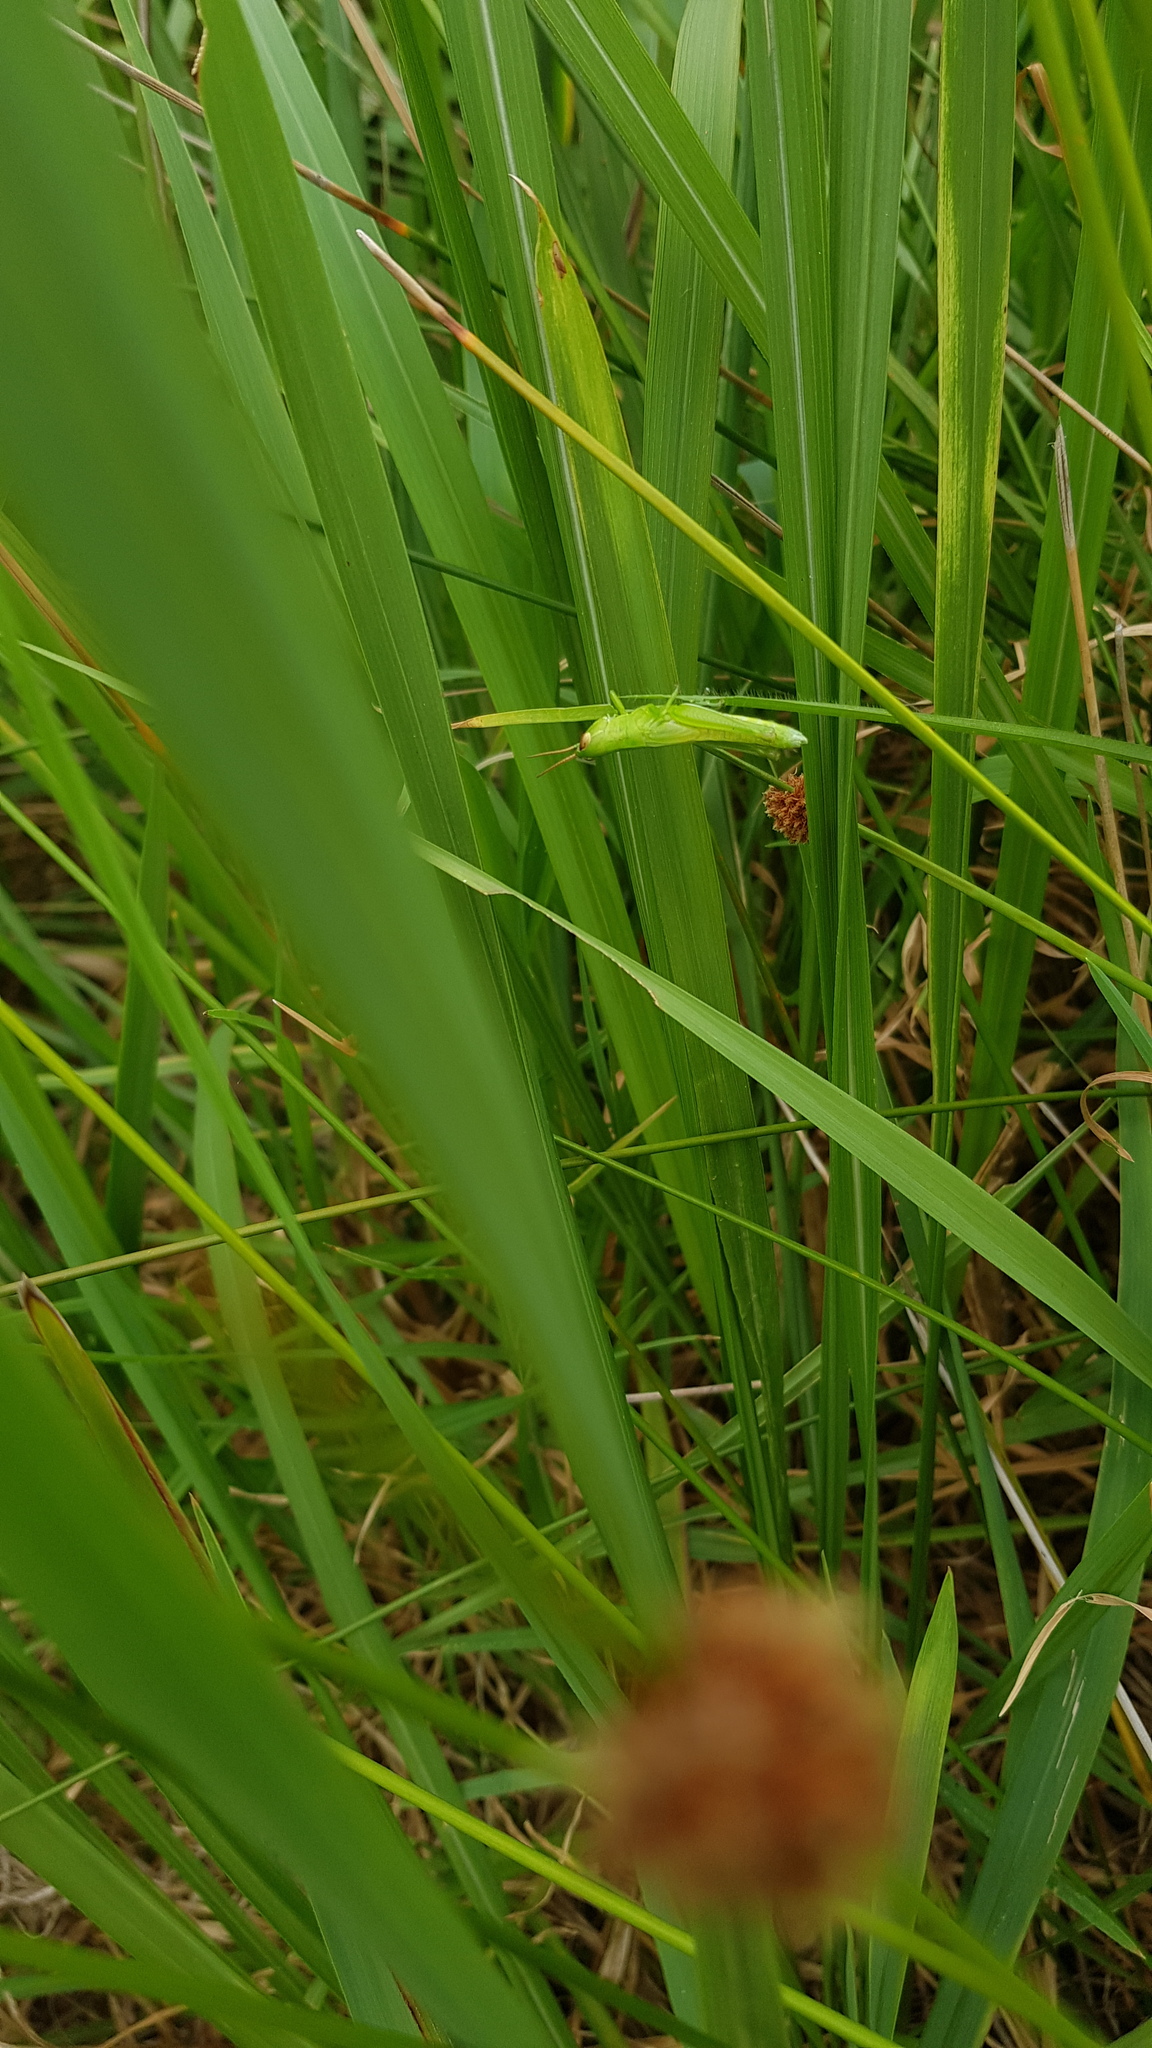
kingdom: Animalia
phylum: Arthropoda
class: Insecta
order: Orthoptera
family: Acrididae
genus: Bermius
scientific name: Bermius brachycerus
